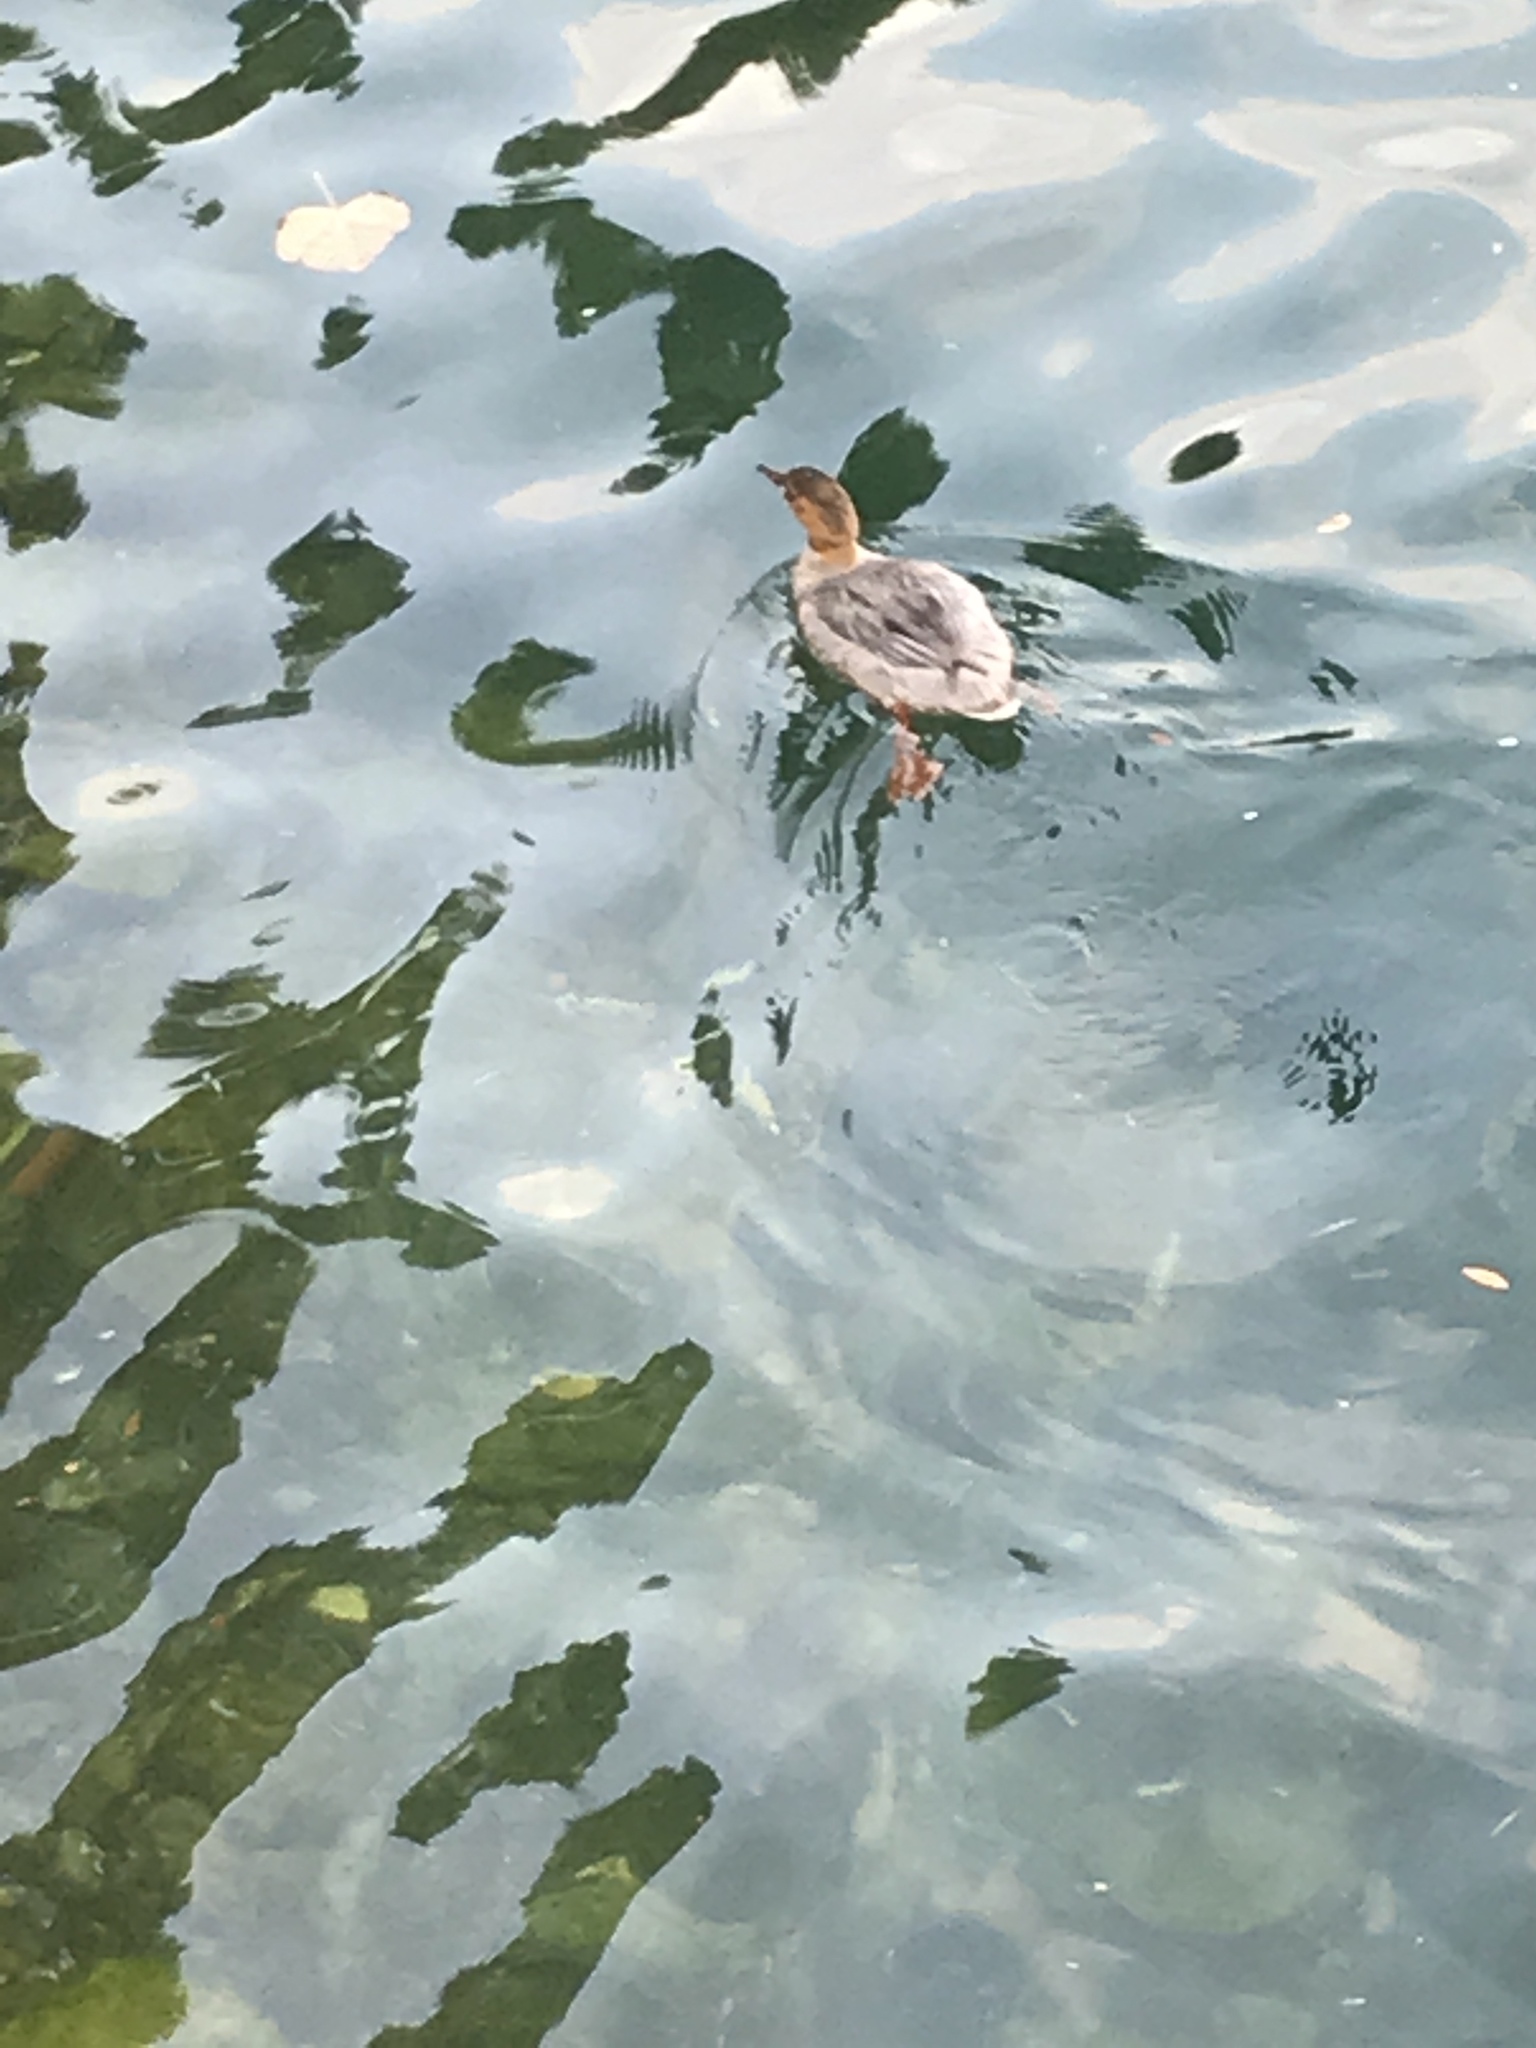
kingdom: Animalia
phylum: Chordata
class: Aves
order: Anseriformes
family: Anatidae
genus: Mergus
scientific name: Mergus merganser
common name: Common merganser
